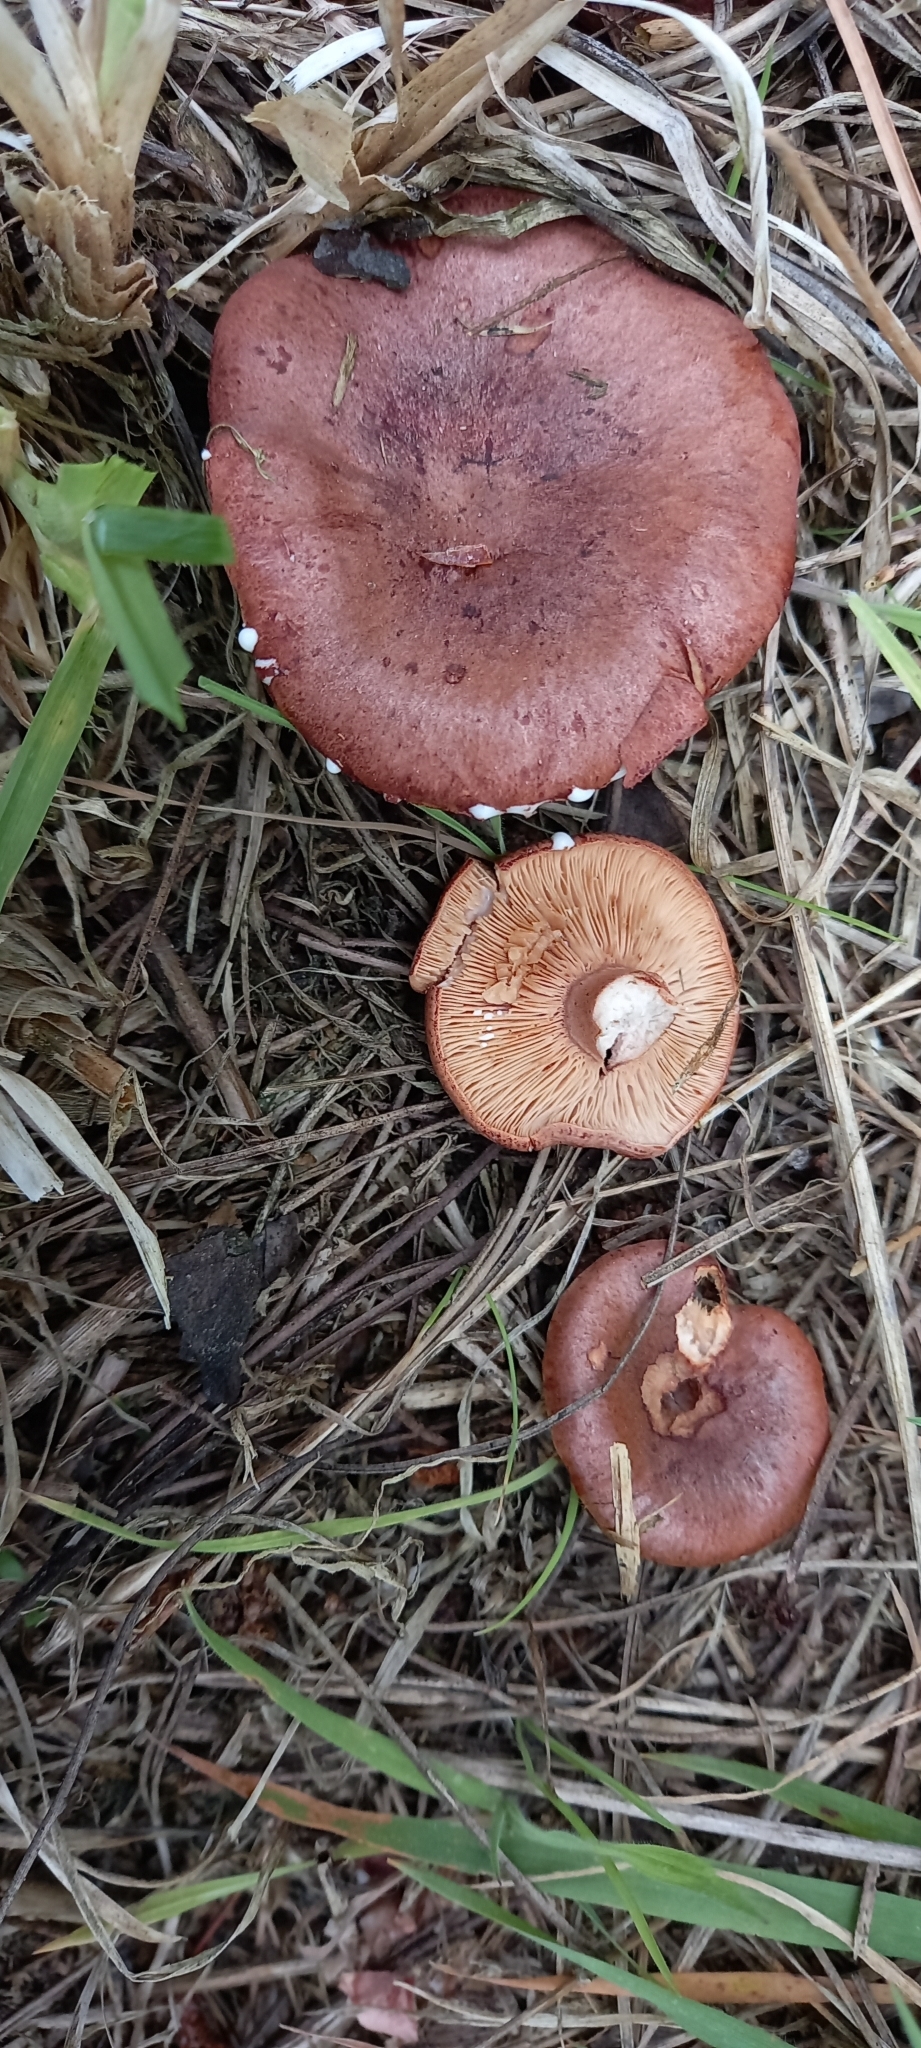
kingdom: Fungi
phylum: Basidiomycota
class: Agaricomycetes
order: Russulales
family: Russulaceae
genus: Lactarius
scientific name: Lactarius rufus
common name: Rufous milk-cap
